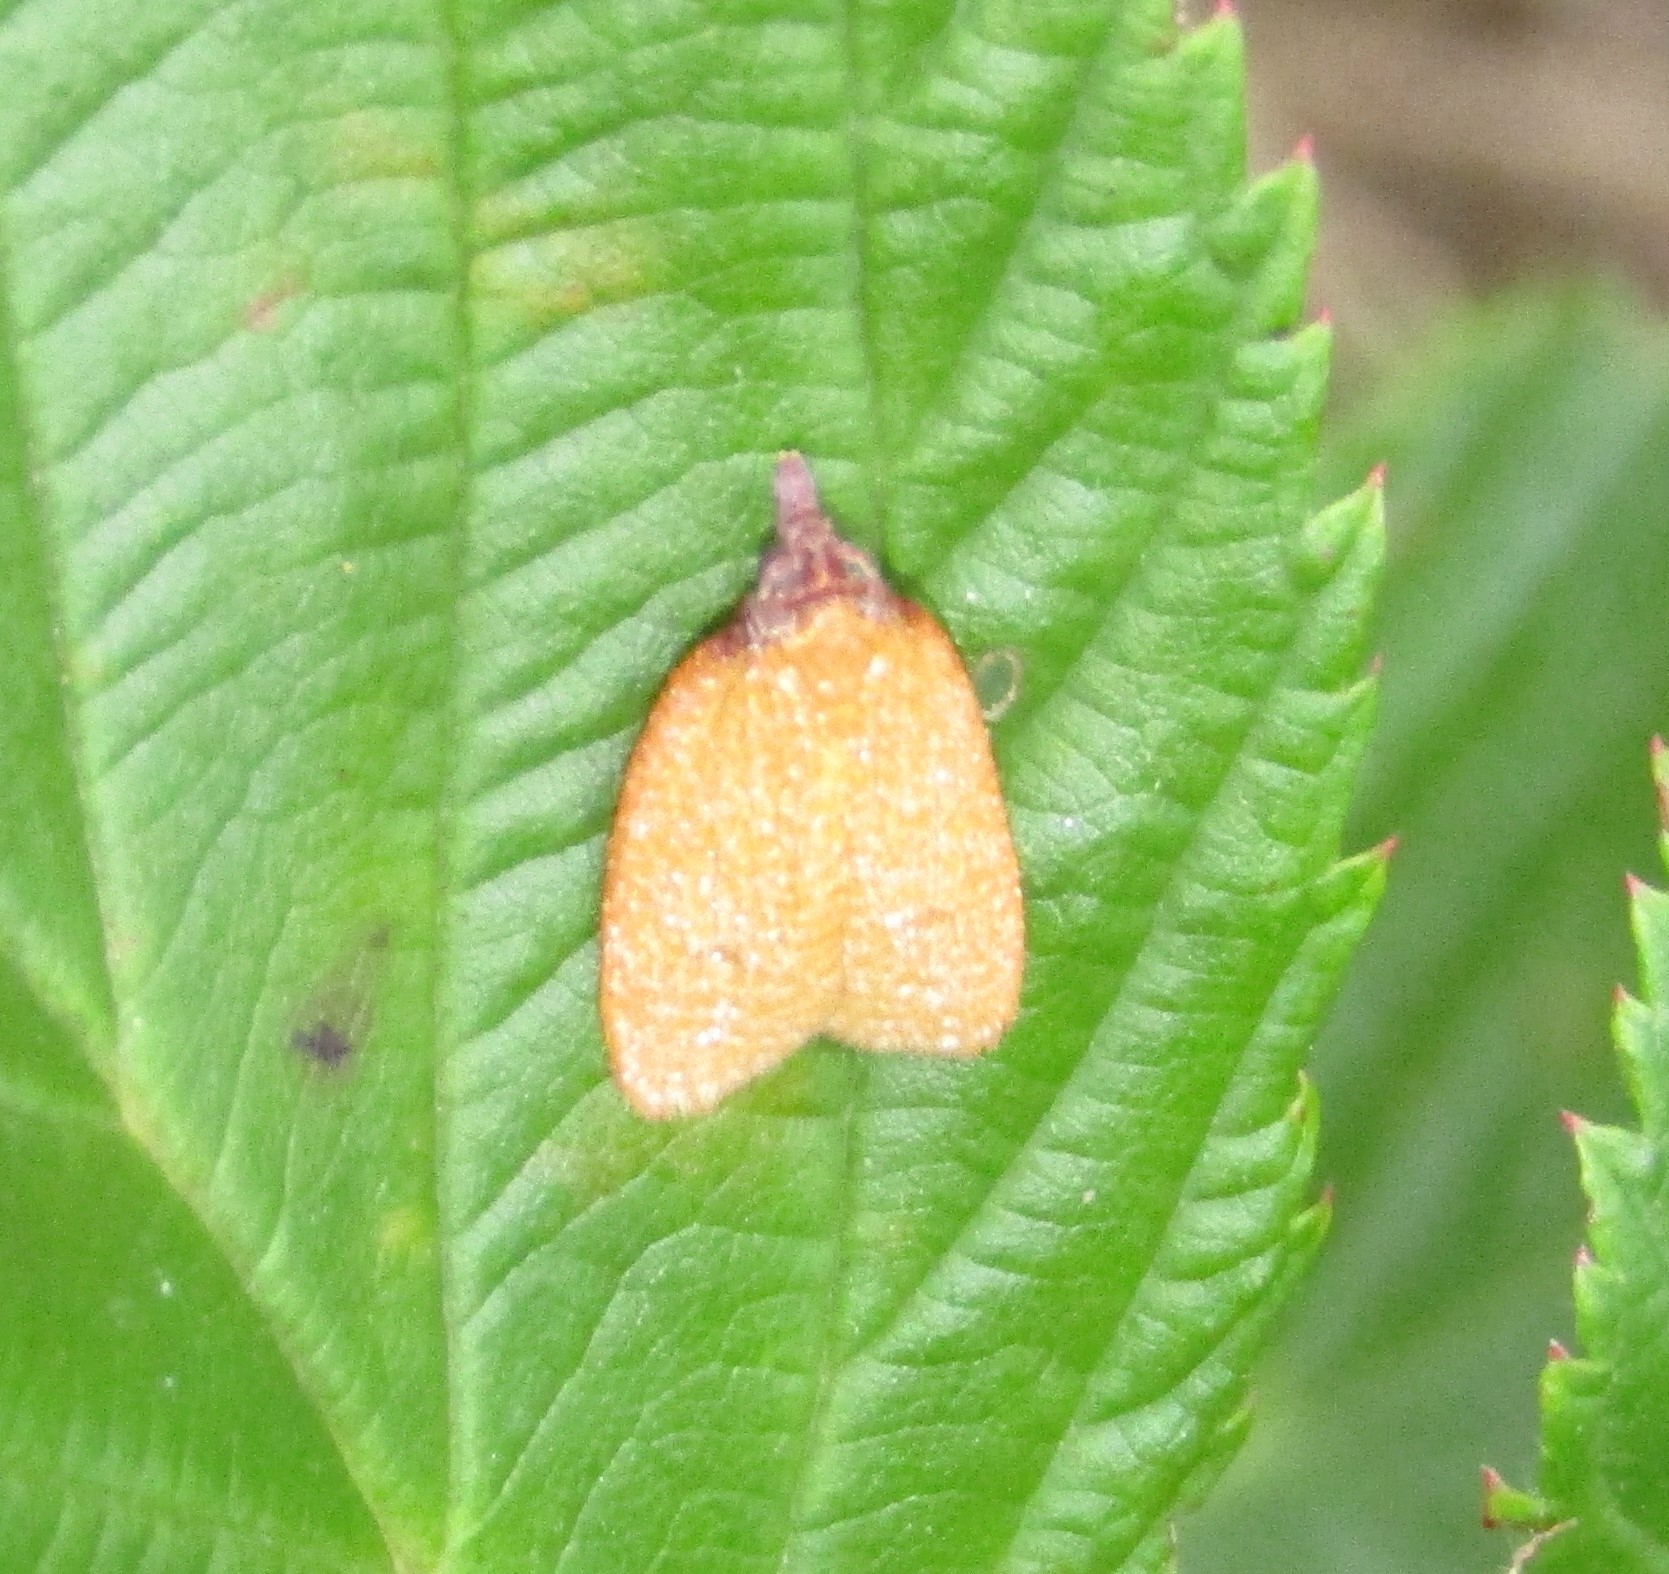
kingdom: Animalia
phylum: Arthropoda
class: Insecta
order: Lepidoptera
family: Tortricidae
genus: Sparganothis
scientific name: Sparganothis distincta
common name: Distinct sparganothis moth
